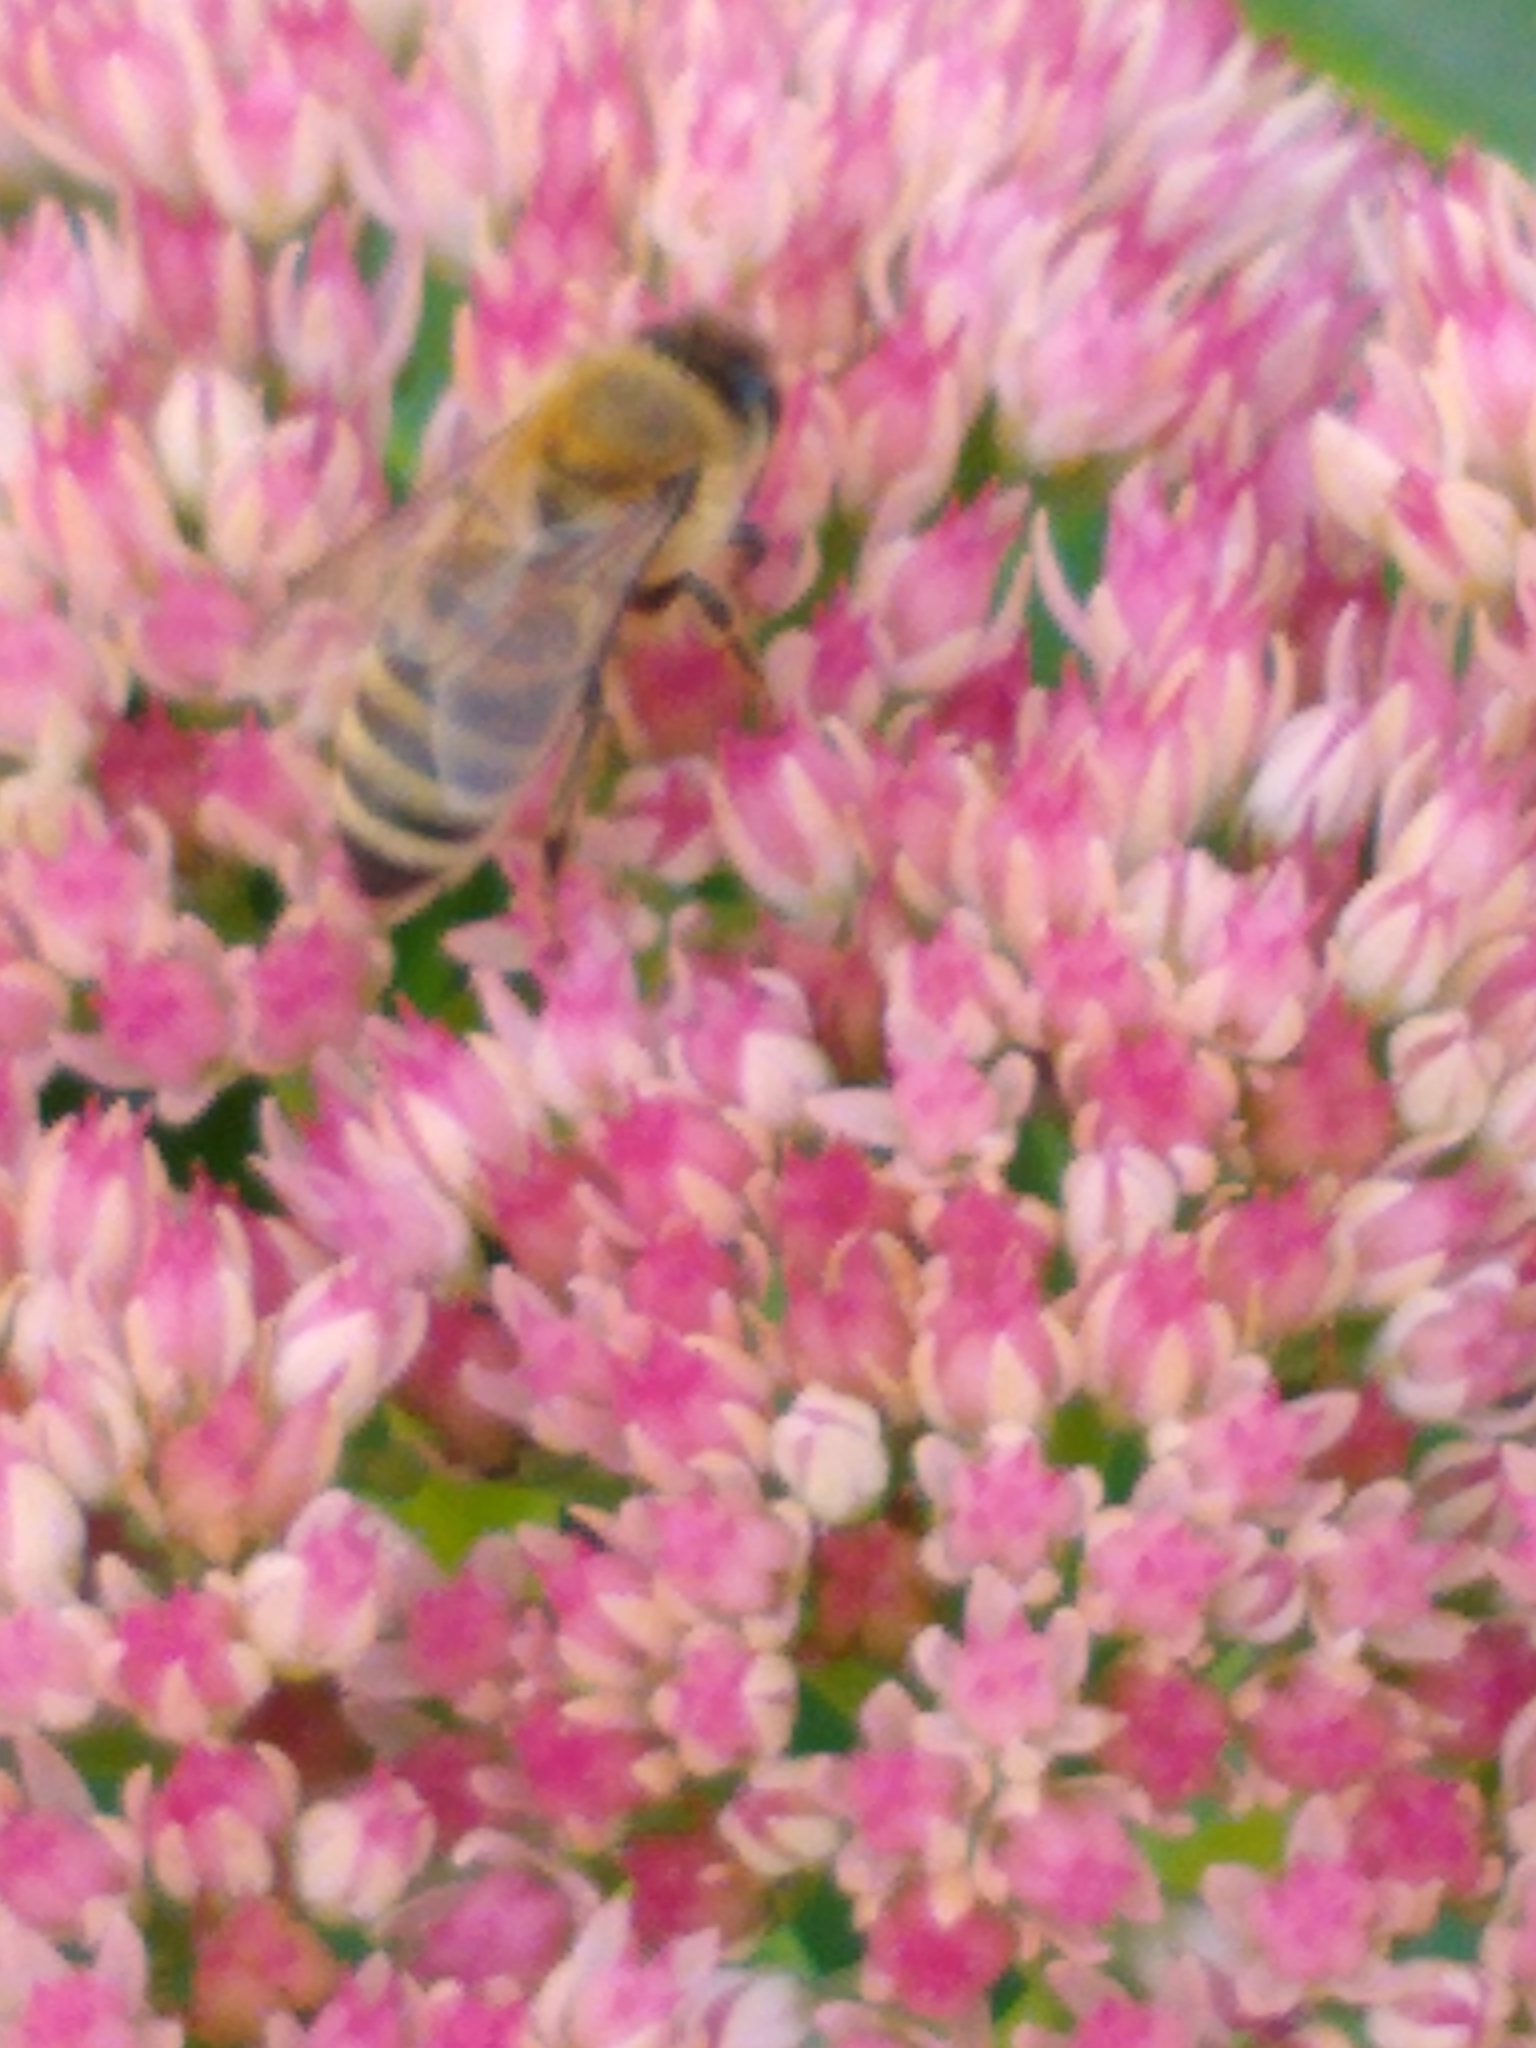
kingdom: Animalia
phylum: Arthropoda
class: Insecta
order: Hymenoptera
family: Apidae
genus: Apis
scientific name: Apis mellifera
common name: Honey bee
